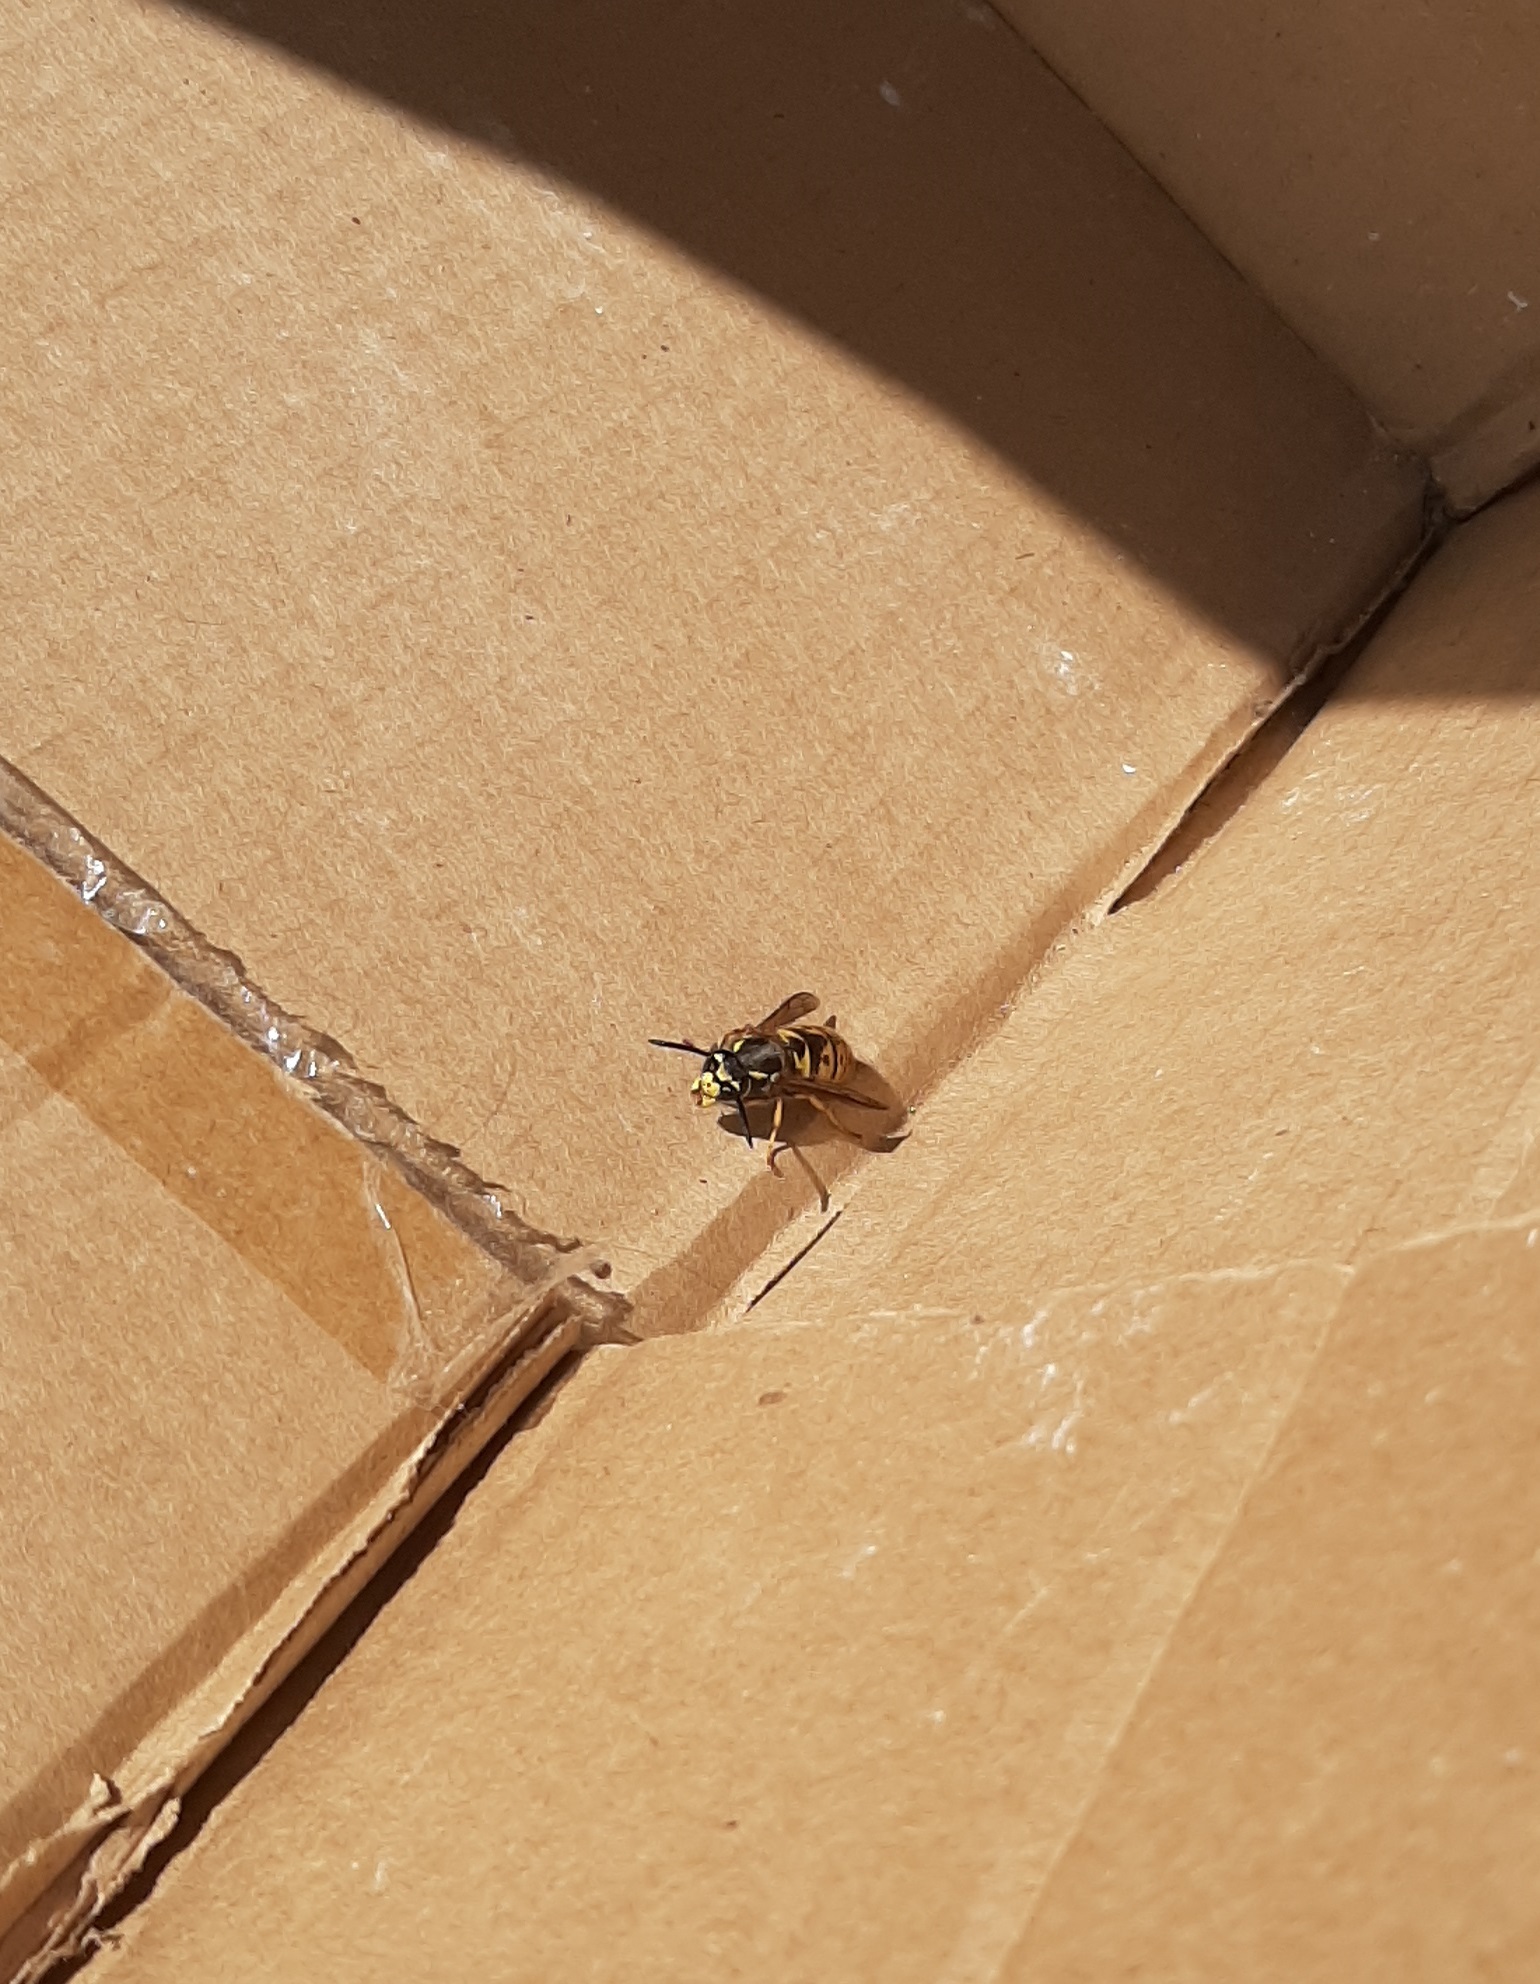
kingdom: Animalia
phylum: Arthropoda
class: Insecta
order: Hymenoptera
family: Vespidae
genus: Vespula
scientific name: Vespula germanica
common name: German wasp
